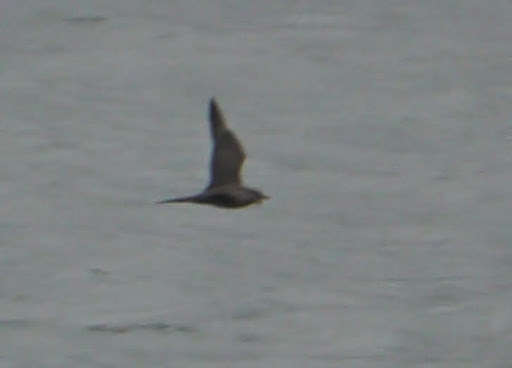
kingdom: Animalia
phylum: Chordata
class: Aves
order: Charadriiformes
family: Stercorariidae
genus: Stercorarius
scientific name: Stercorarius
